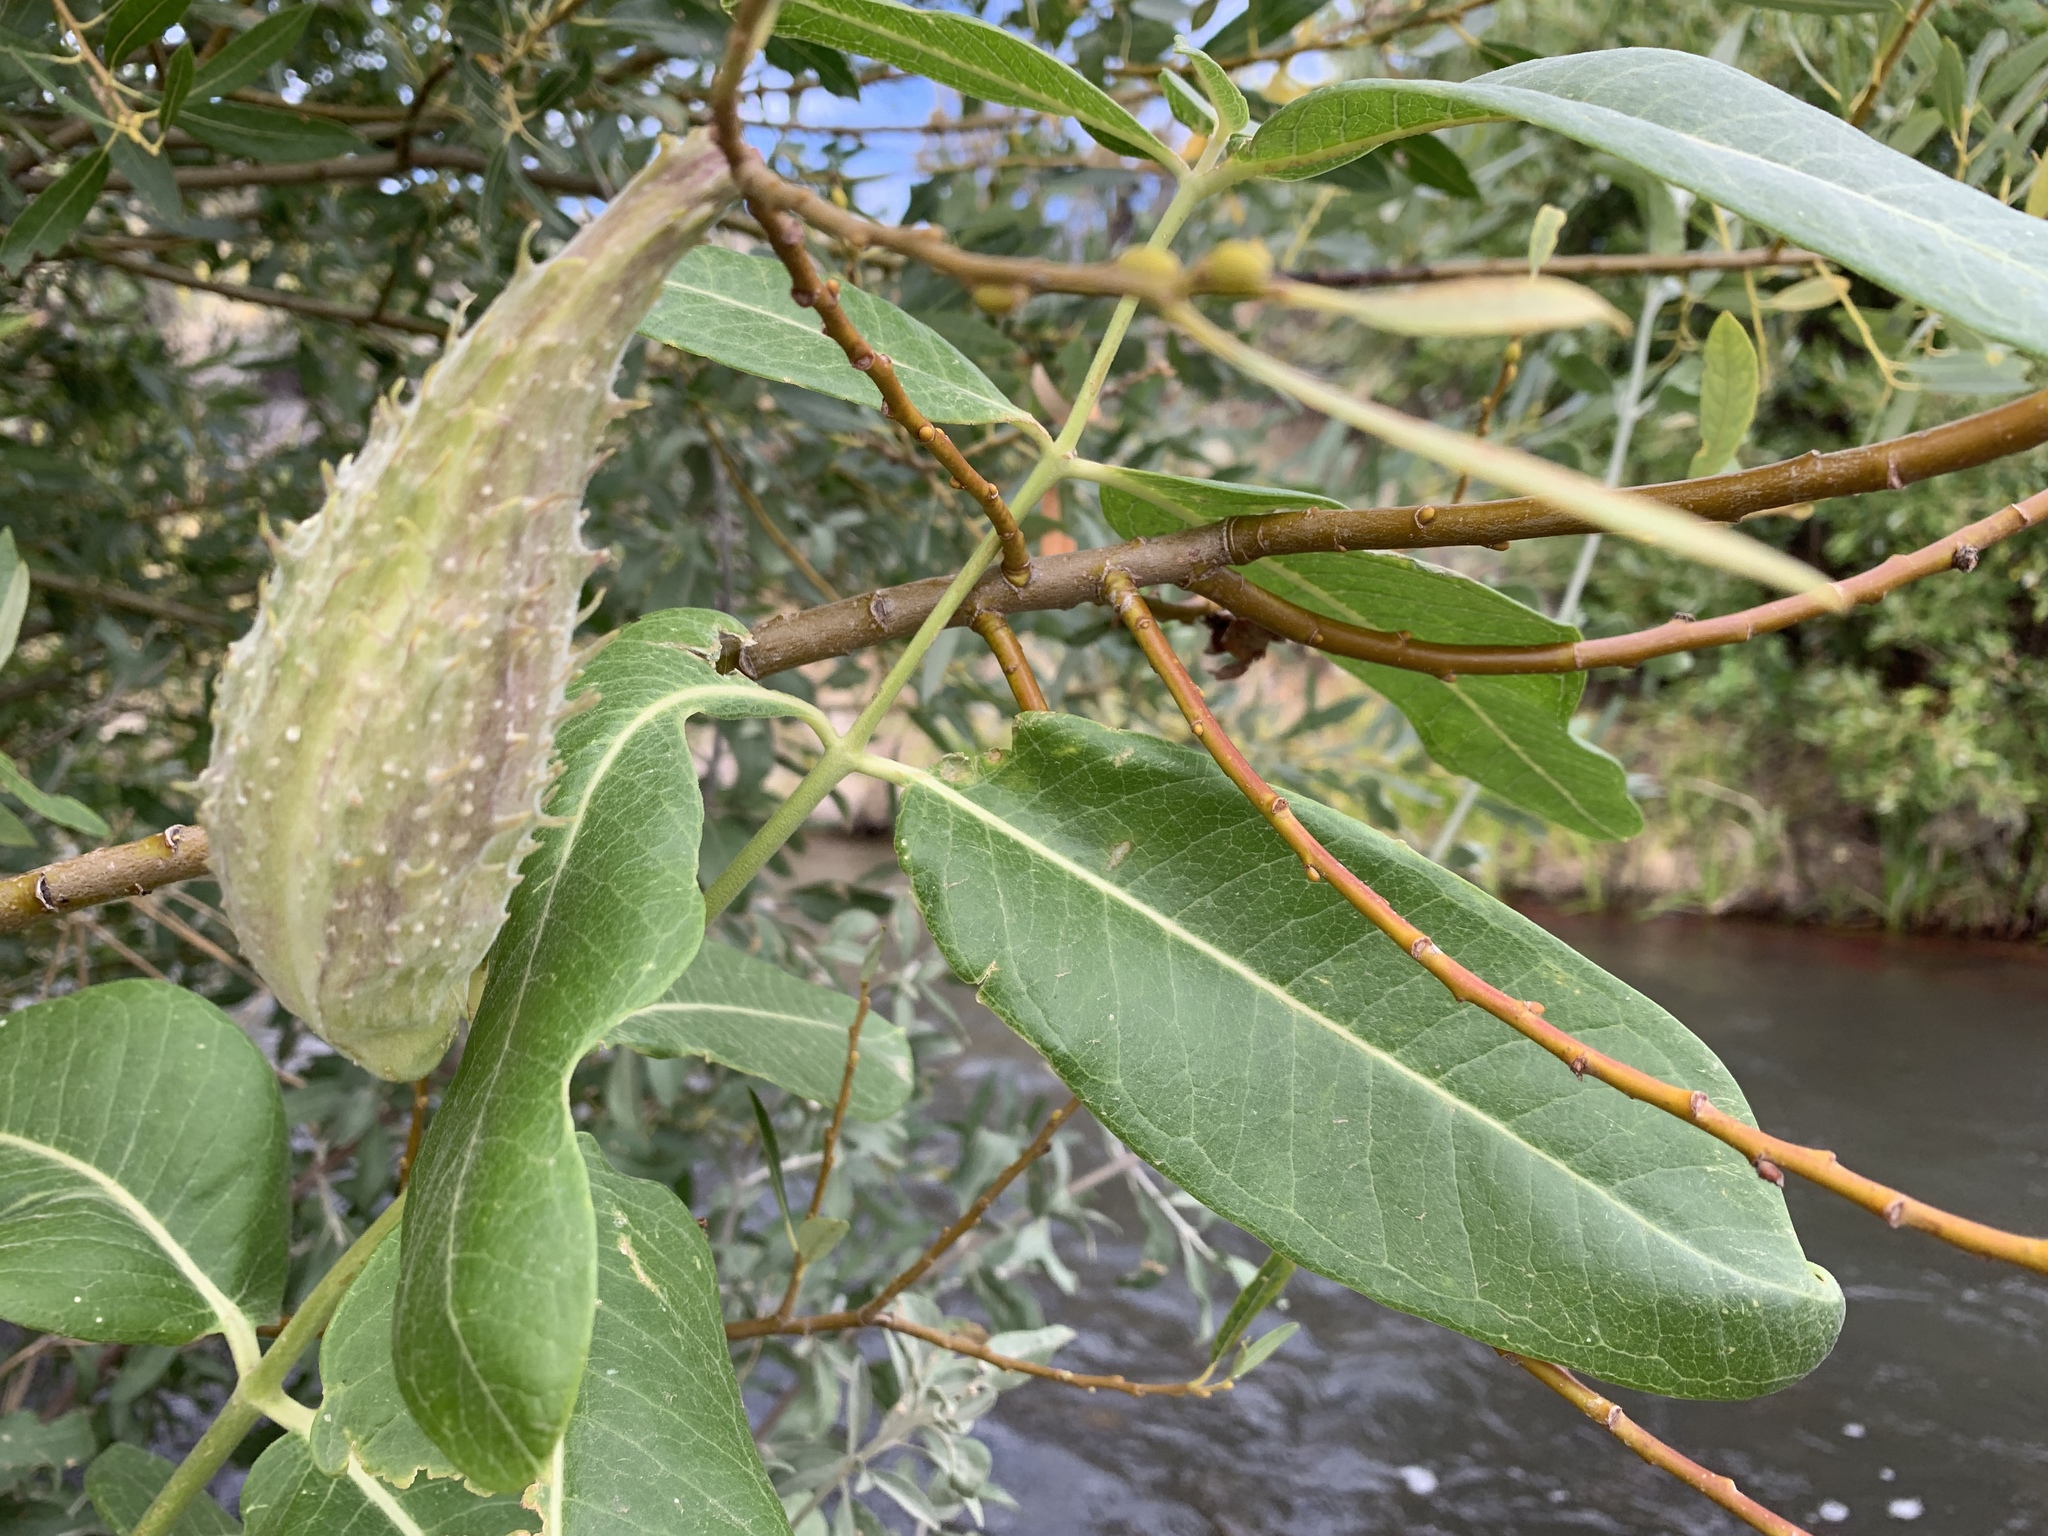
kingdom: Plantae
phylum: Tracheophyta
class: Magnoliopsida
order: Gentianales
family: Apocynaceae
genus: Asclepias
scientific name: Asclepias speciosa
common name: Showy milkweed
